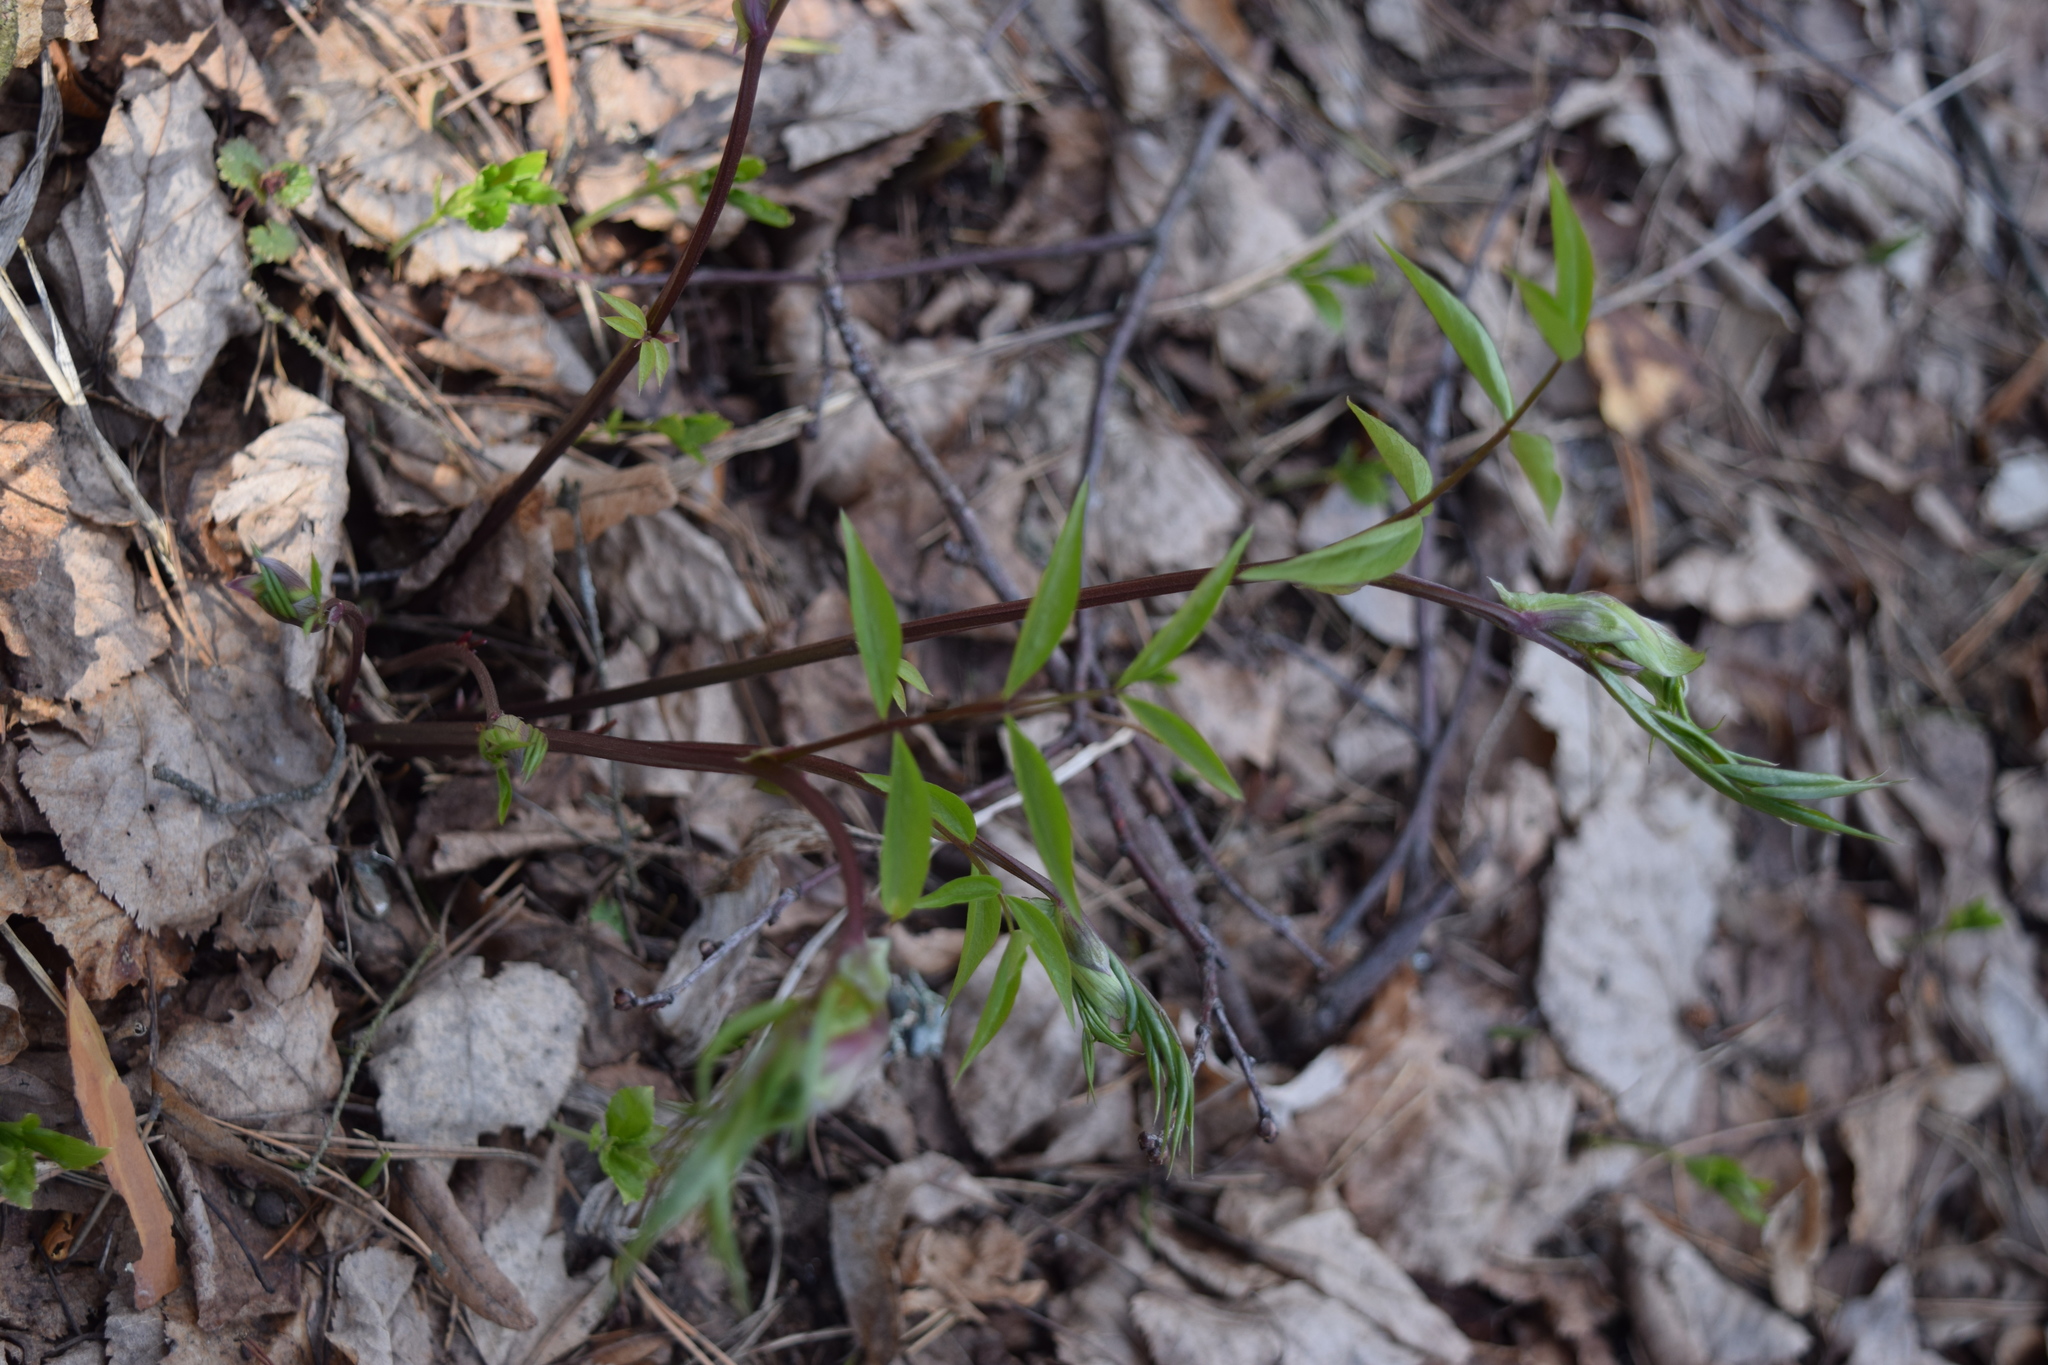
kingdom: Plantae
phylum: Tracheophyta
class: Magnoliopsida
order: Fabales
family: Fabaceae
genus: Lathyrus
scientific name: Lathyrus vernus
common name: Spring pea
